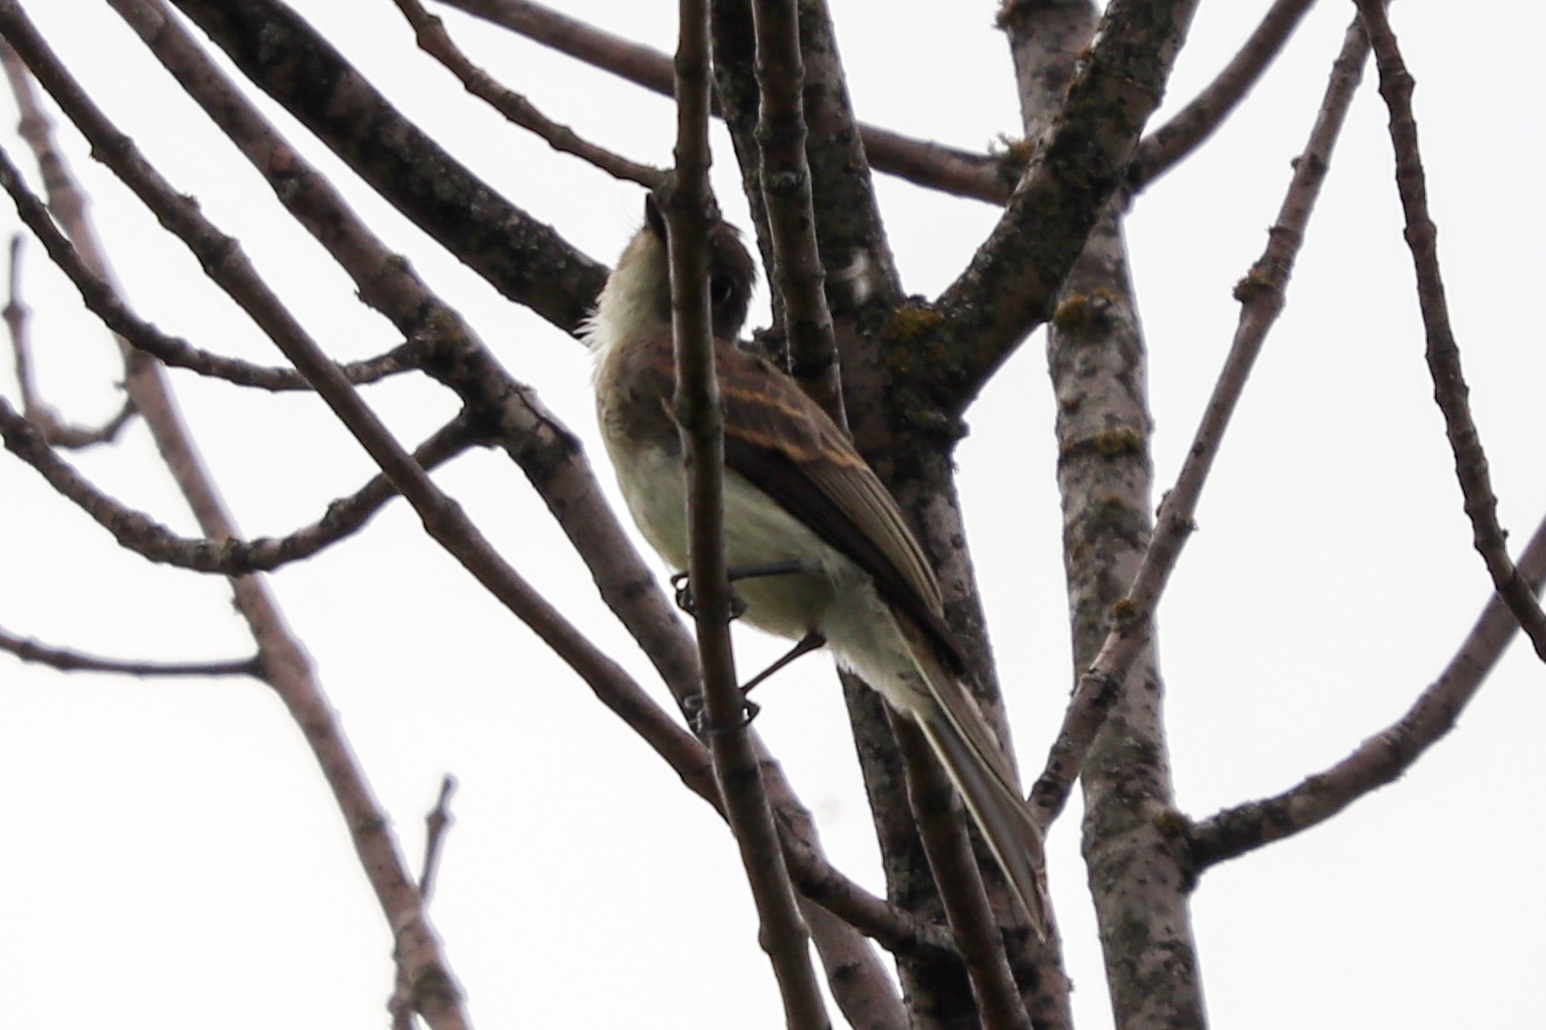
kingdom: Animalia
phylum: Chordata
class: Aves
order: Passeriformes
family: Tyrannidae
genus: Sayornis
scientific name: Sayornis phoebe
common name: Eastern phoebe
